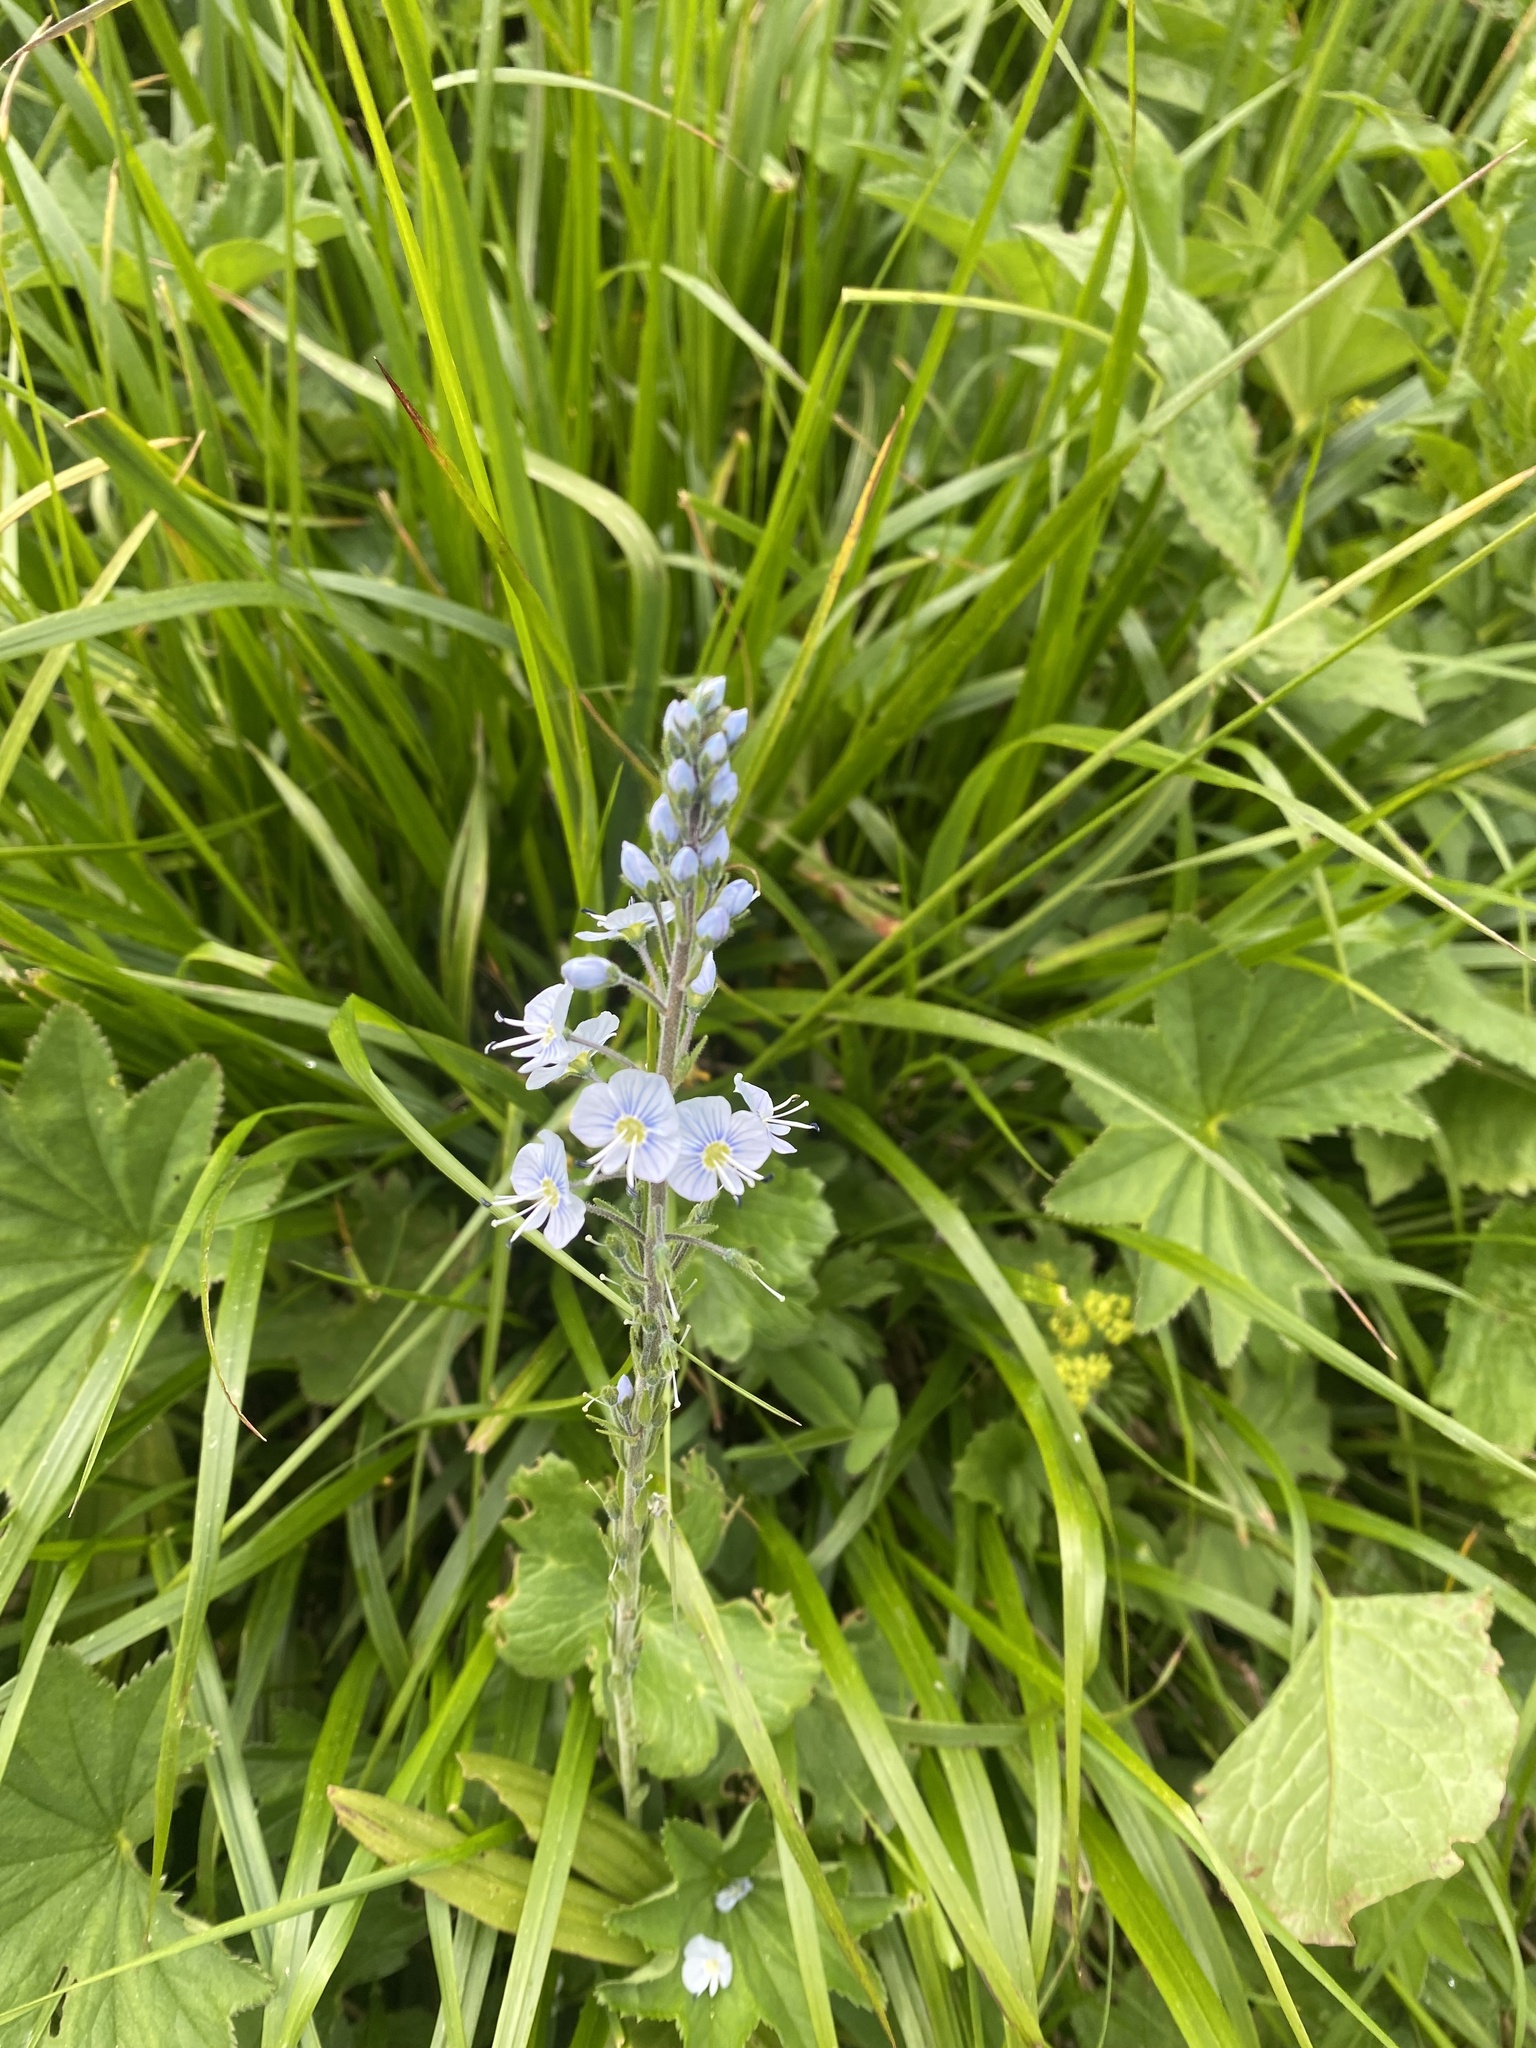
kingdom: Plantae
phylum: Tracheophyta
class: Magnoliopsida
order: Lamiales
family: Plantaginaceae
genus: Veronica
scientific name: Veronica gentianoides
